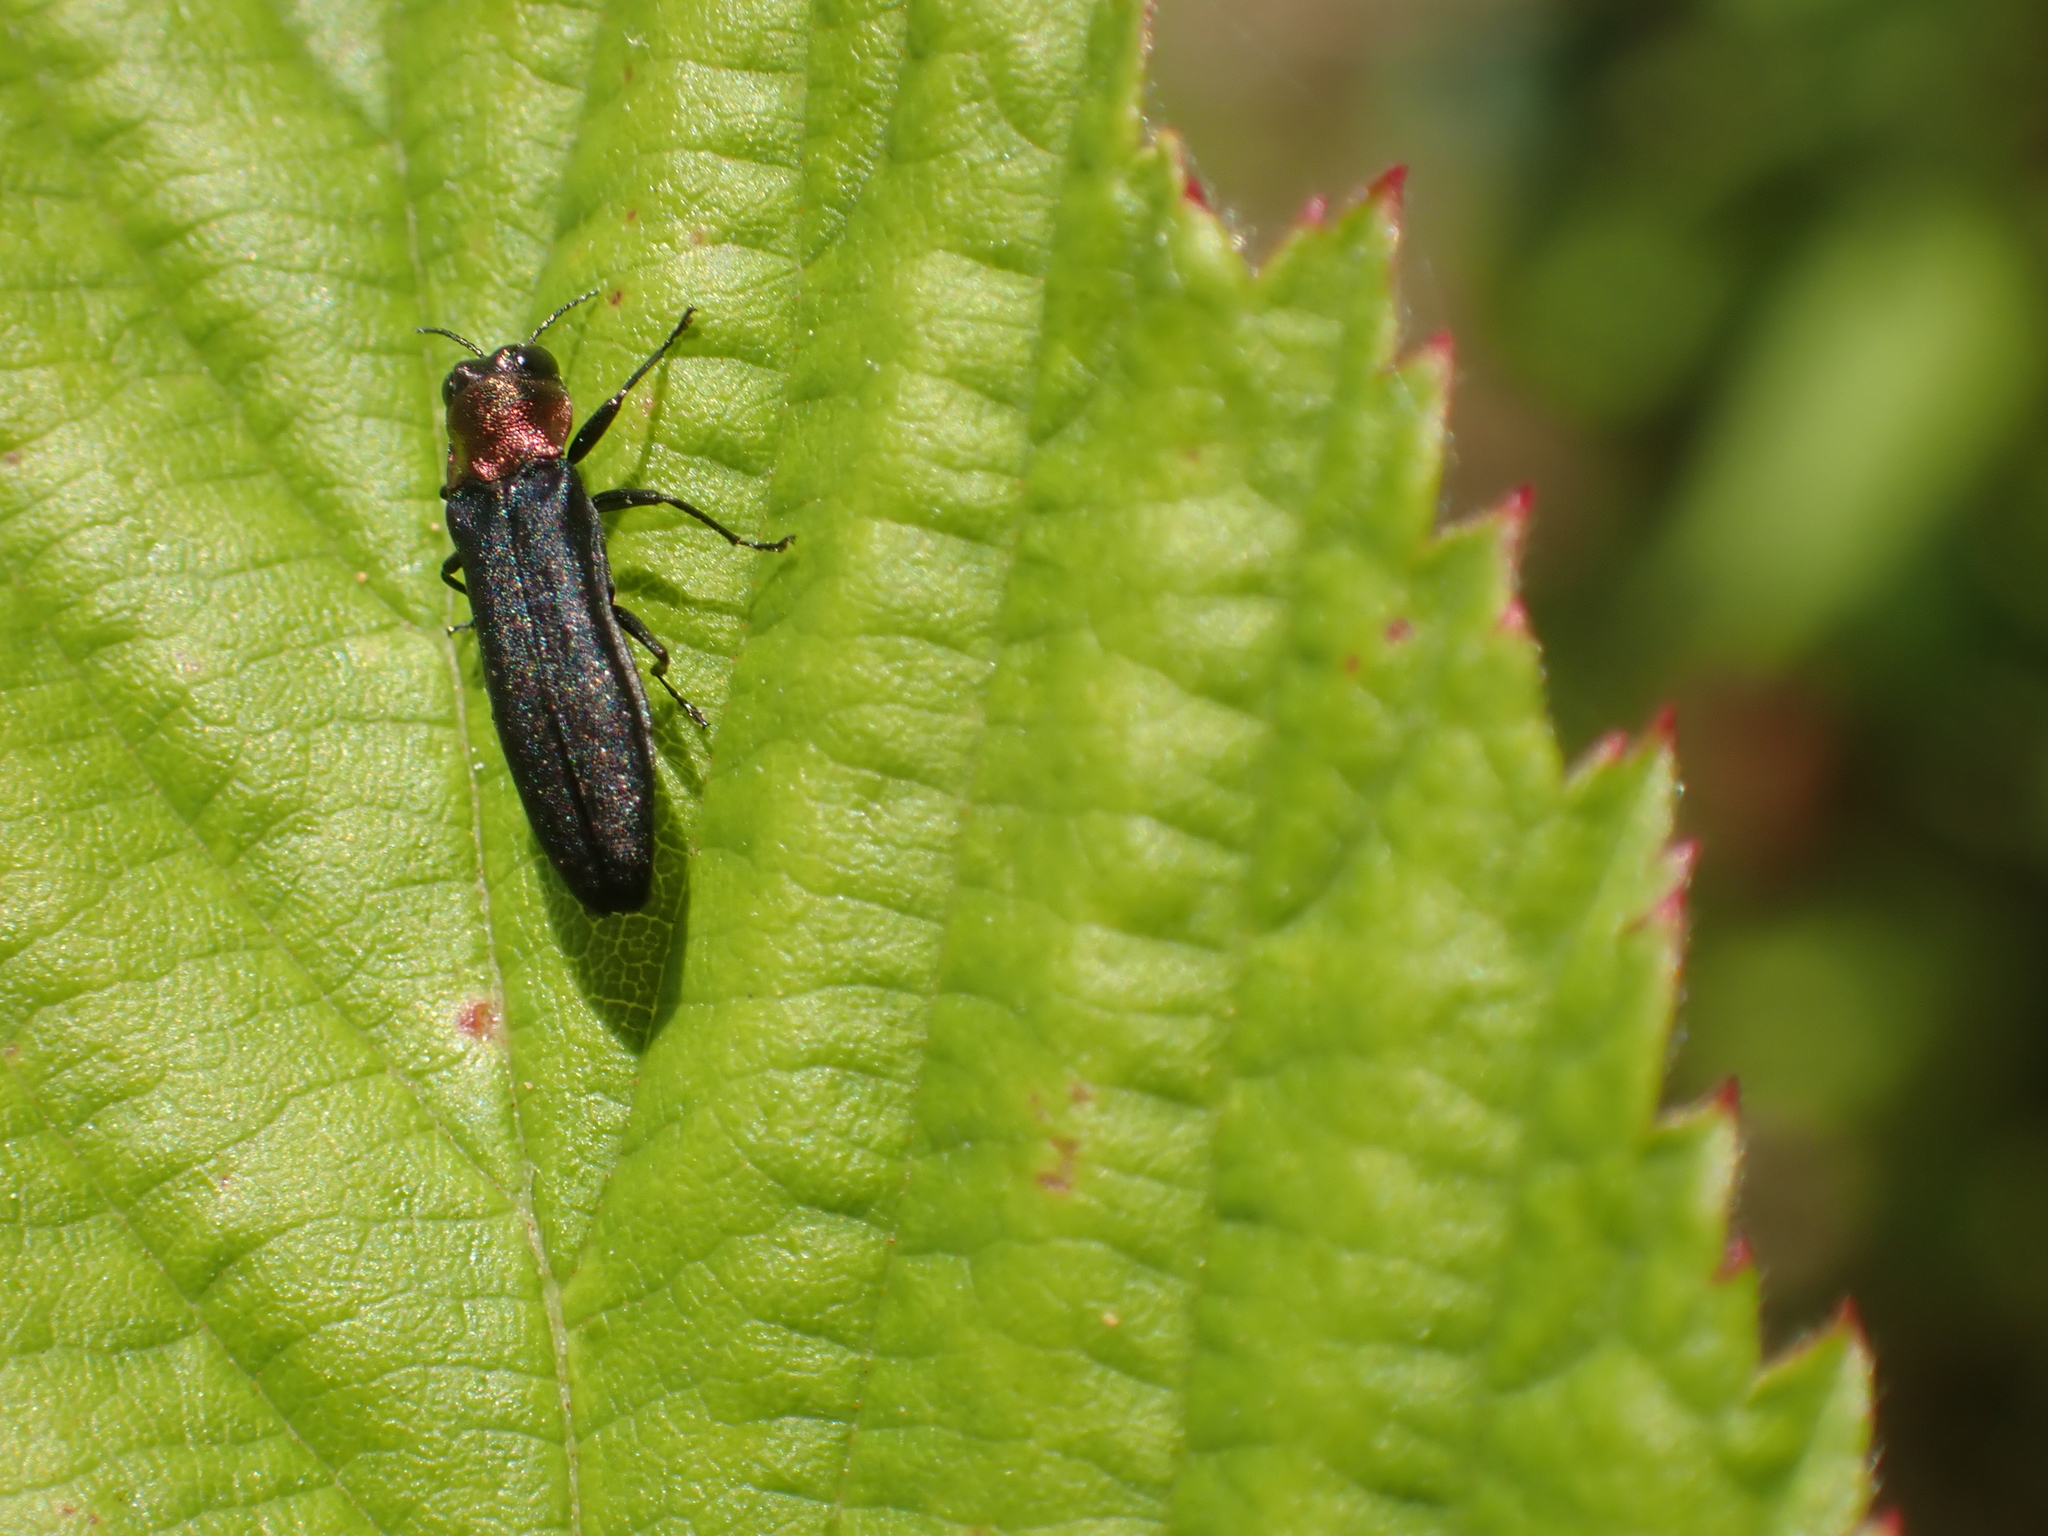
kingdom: Animalia
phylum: Arthropoda
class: Insecta
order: Coleoptera
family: Buprestidae
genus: Agrilus
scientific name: Agrilus ruficollis
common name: Red-necked cane borer beetle
